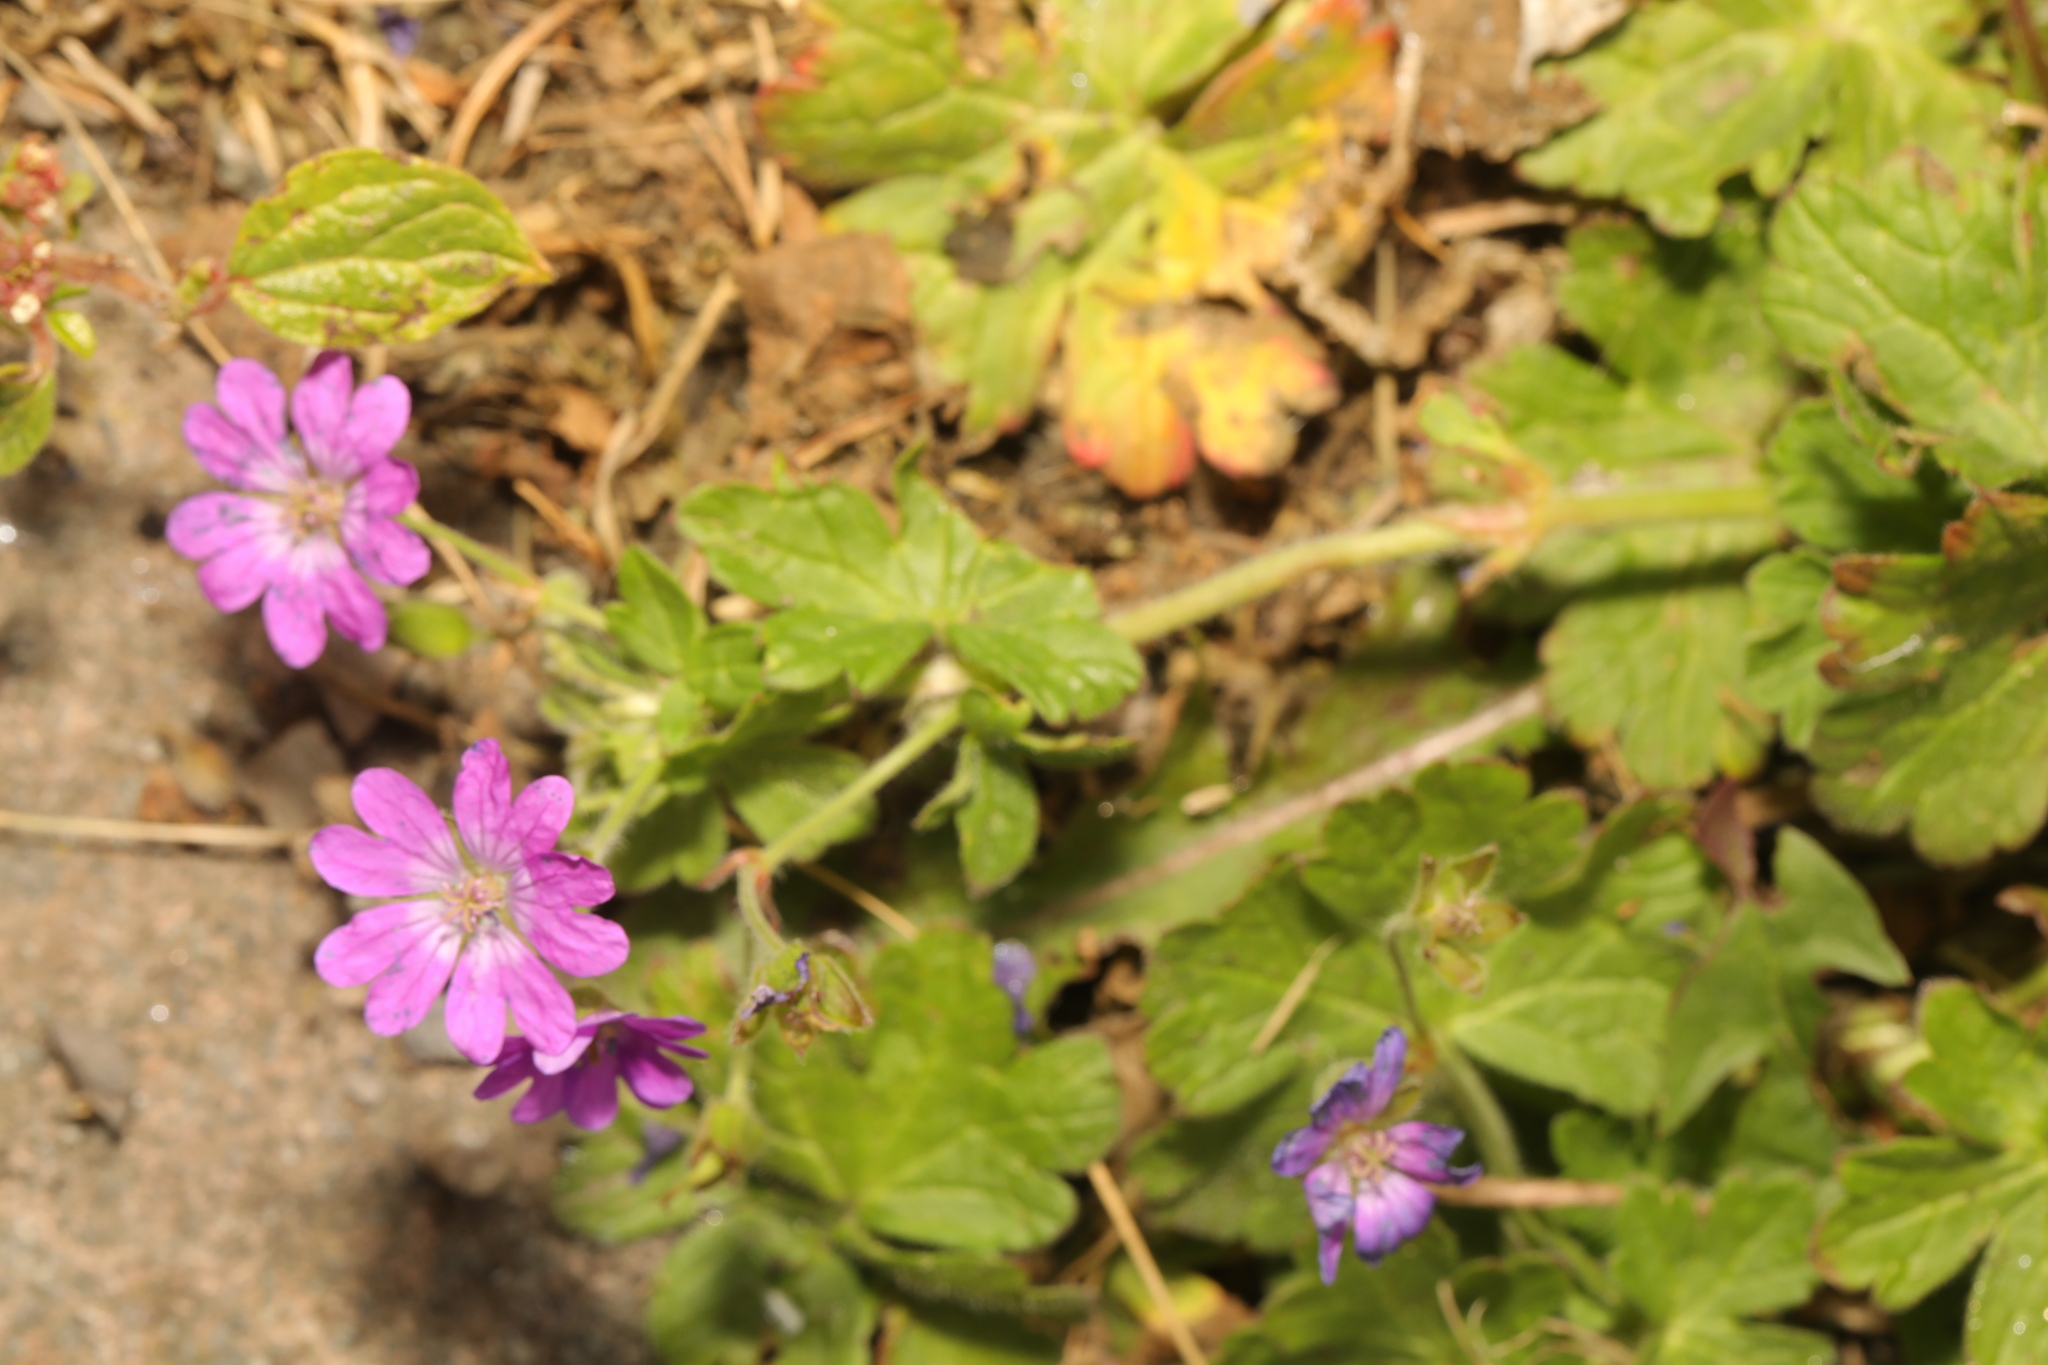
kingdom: Plantae
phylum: Tracheophyta
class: Magnoliopsida
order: Geraniales
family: Geraniaceae
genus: Geranium
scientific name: Geranium pyrenaicum
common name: Hedgerow crane's-bill
